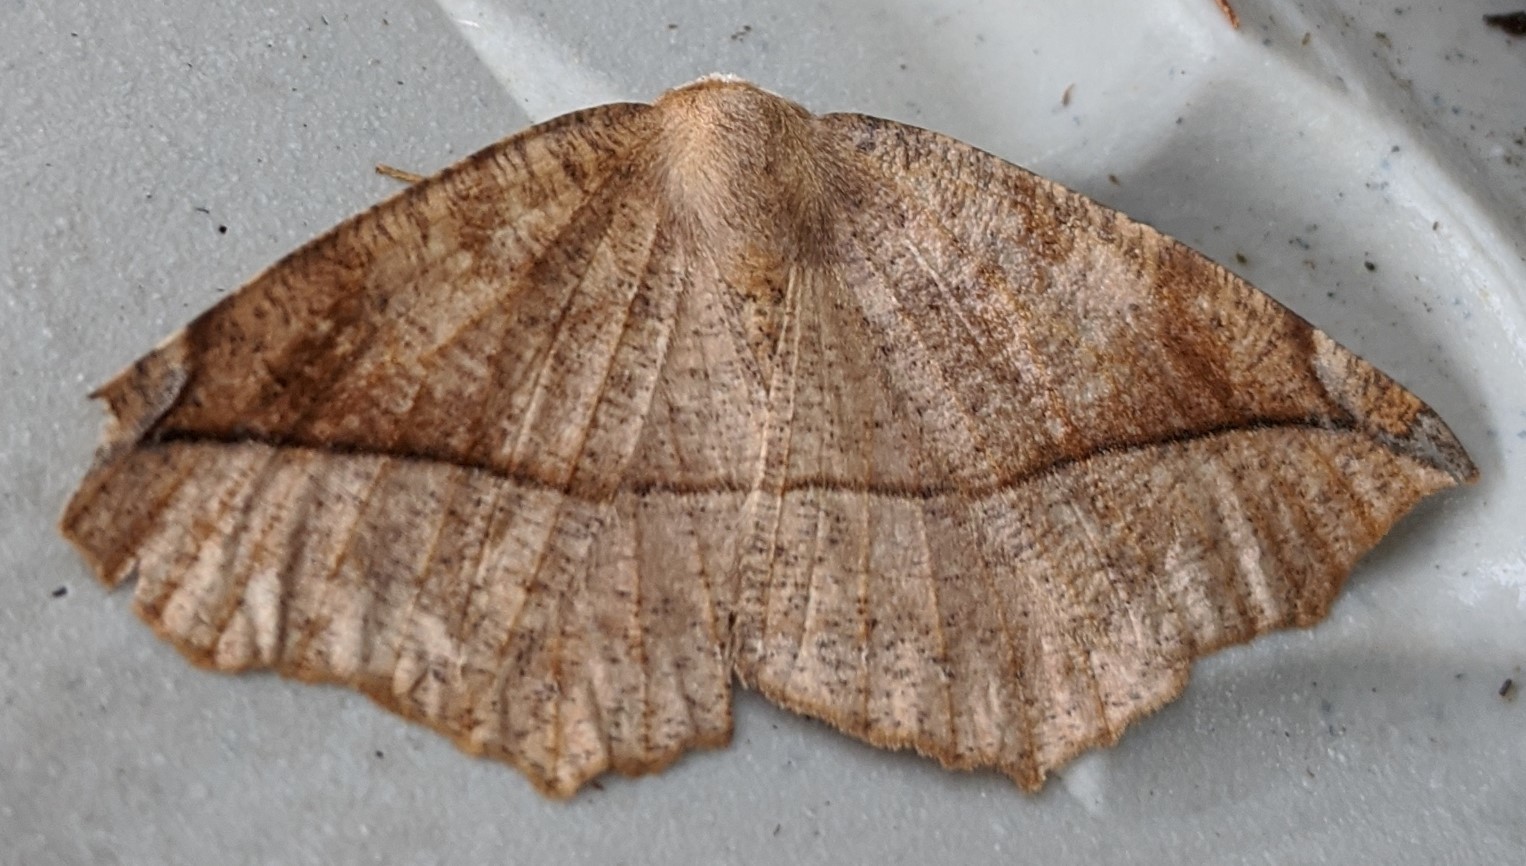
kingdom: Animalia
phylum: Arthropoda
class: Insecta
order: Lepidoptera
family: Geometridae
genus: Eutrapela
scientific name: Eutrapela clemataria
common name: Curved-toothed geometer
